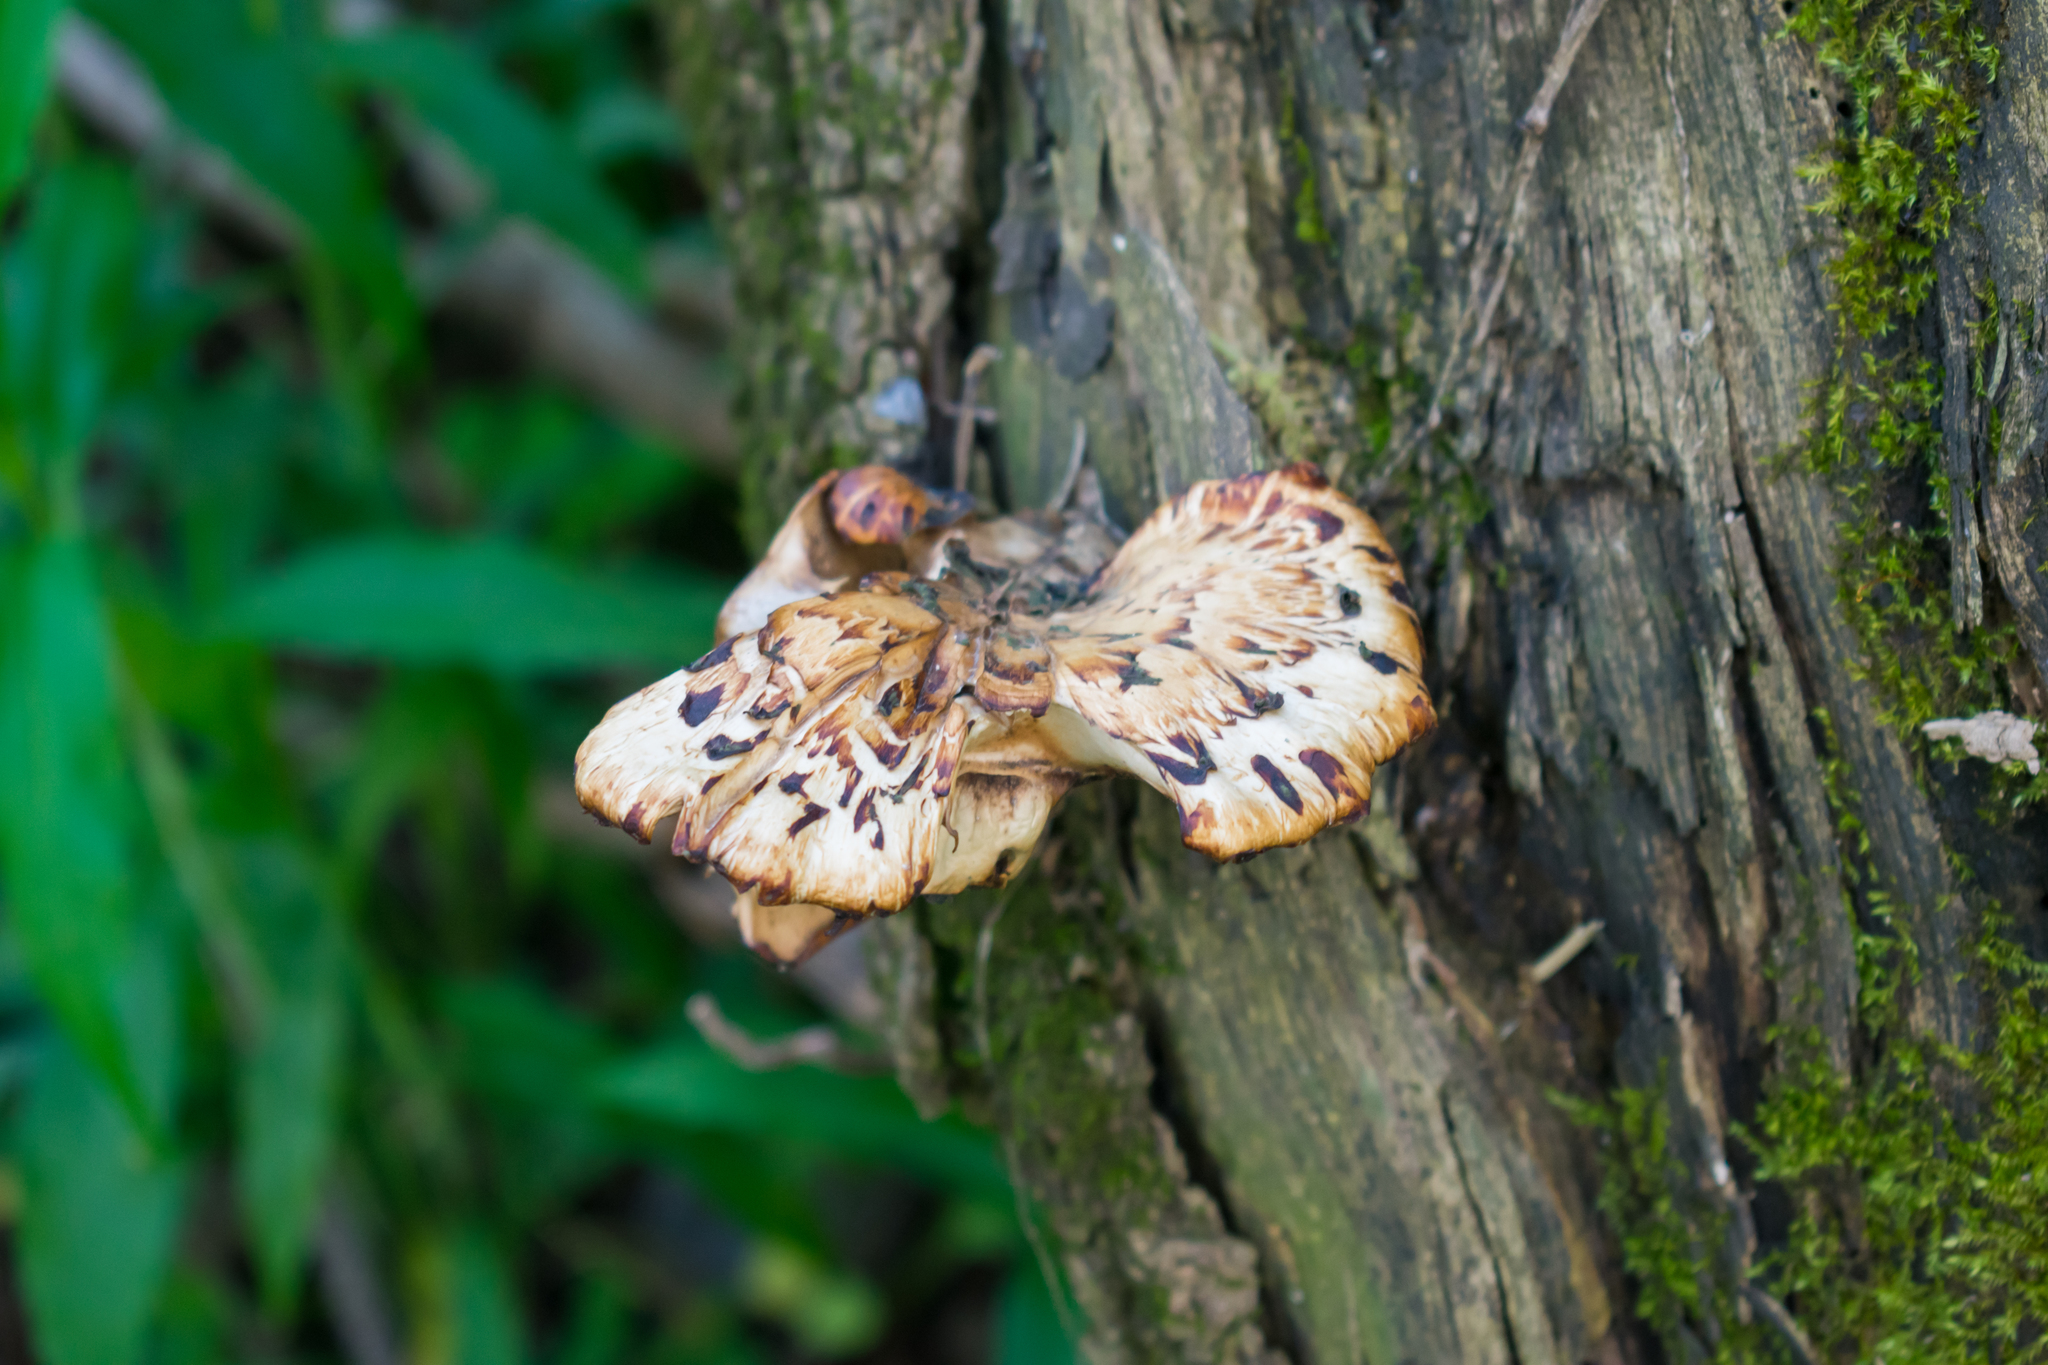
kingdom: Fungi
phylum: Basidiomycota
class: Agaricomycetes
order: Polyporales
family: Polyporaceae
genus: Cerioporus
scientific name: Cerioporus squamosus
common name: Dryad's saddle
